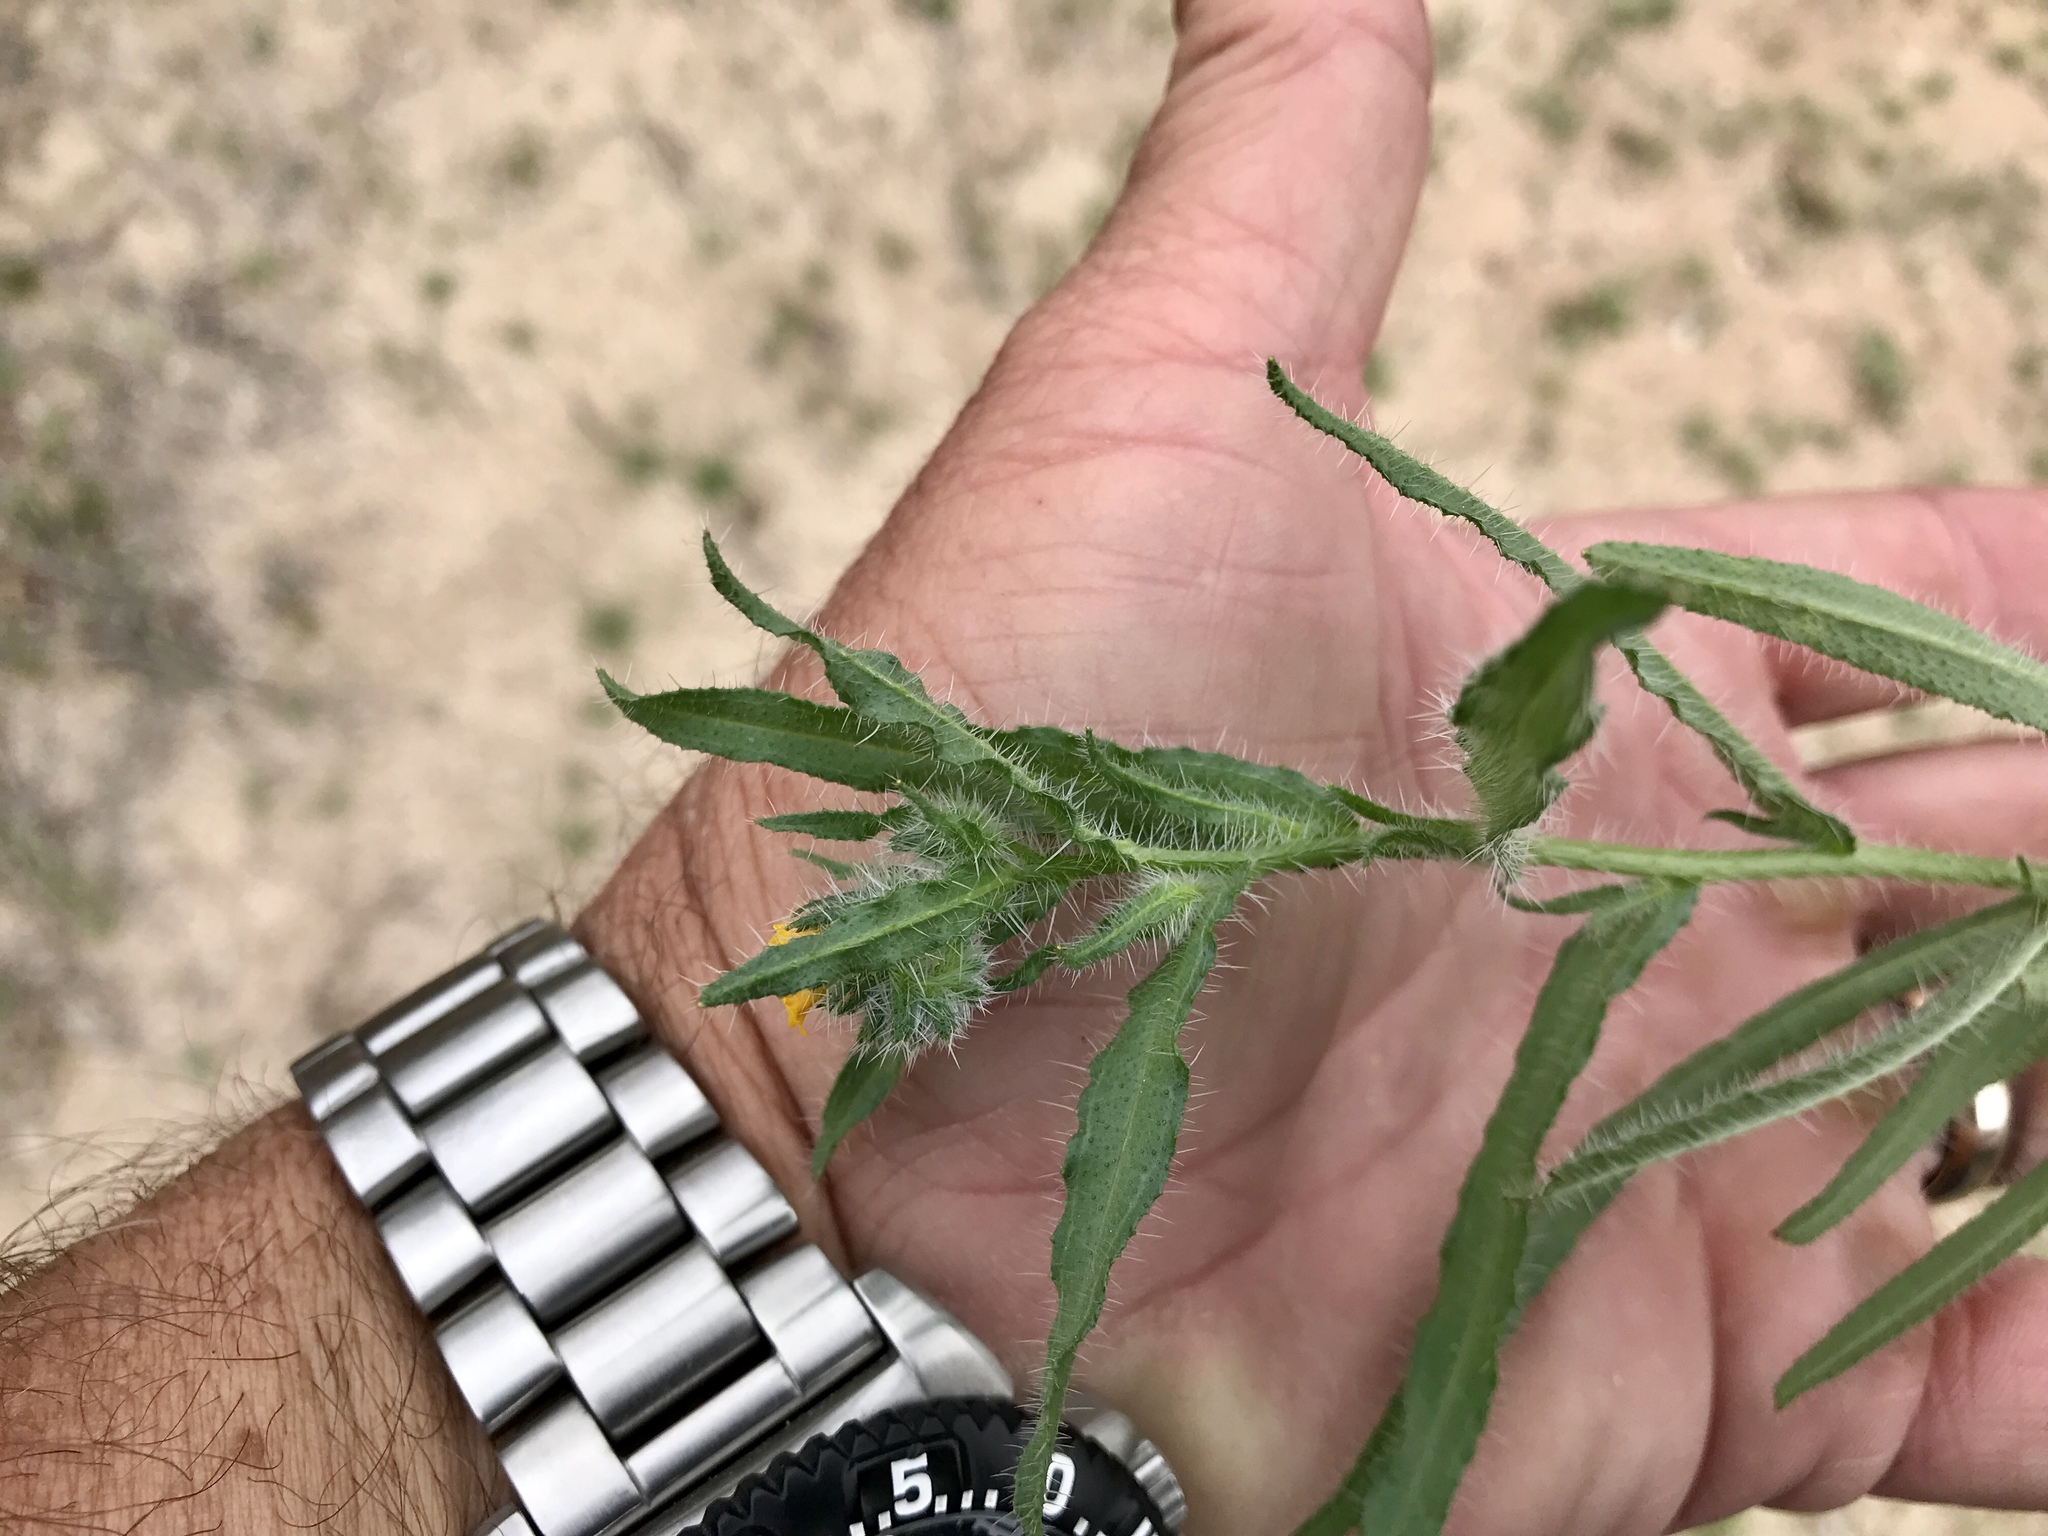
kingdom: Plantae
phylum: Tracheophyta
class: Magnoliopsida
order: Boraginales
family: Boraginaceae
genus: Amsinckia
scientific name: Amsinckia menziesii
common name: Menzies' fiddleneck
